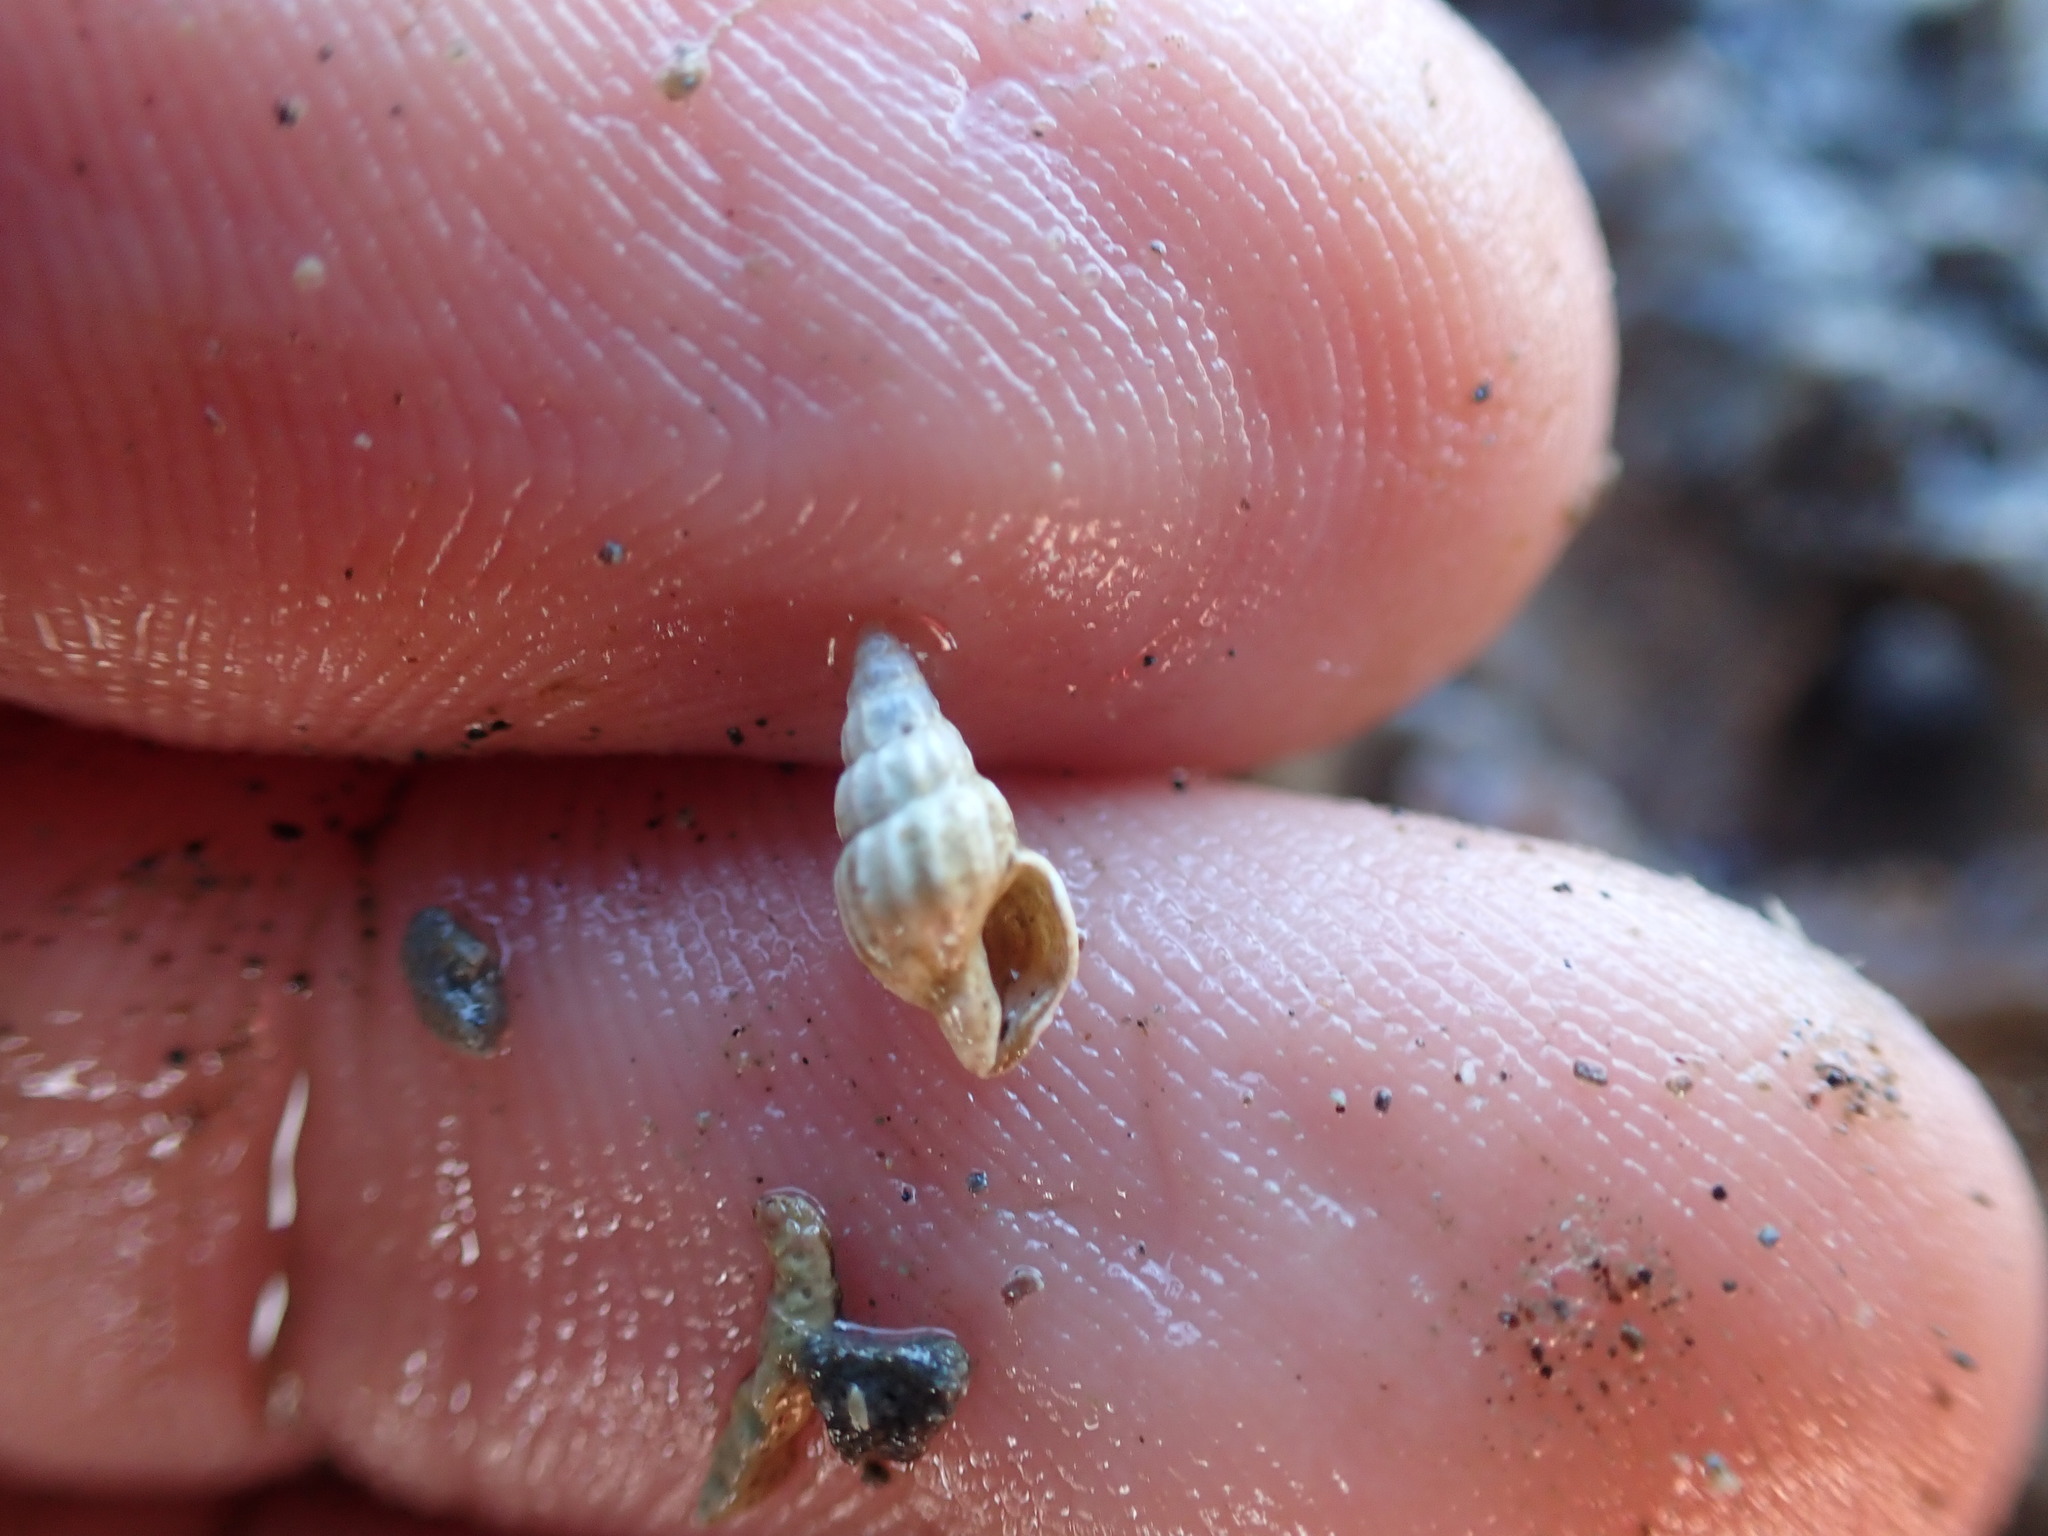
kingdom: Animalia
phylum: Mollusca
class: Gastropoda
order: Neogastropoda
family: Mangeliidae
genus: Neoguraleus
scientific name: Neoguraleus finlayi
